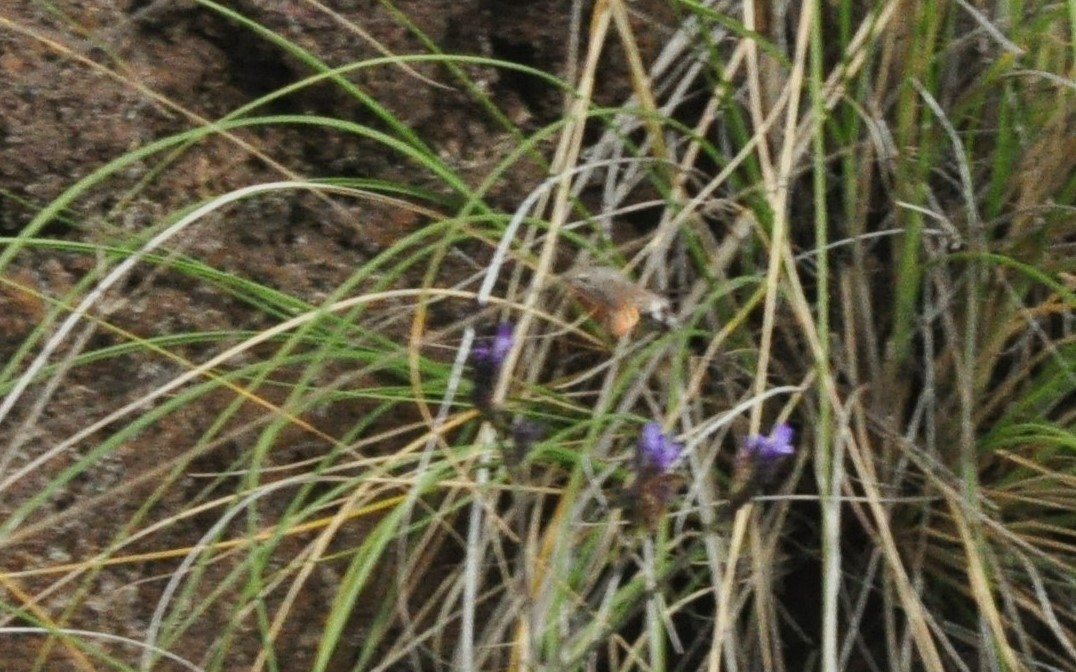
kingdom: Animalia
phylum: Arthropoda
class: Insecta
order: Lepidoptera
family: Sphingidae
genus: Macroglossum
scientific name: Macroglossum stellatarum
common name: Humming-bird hawk-moth
